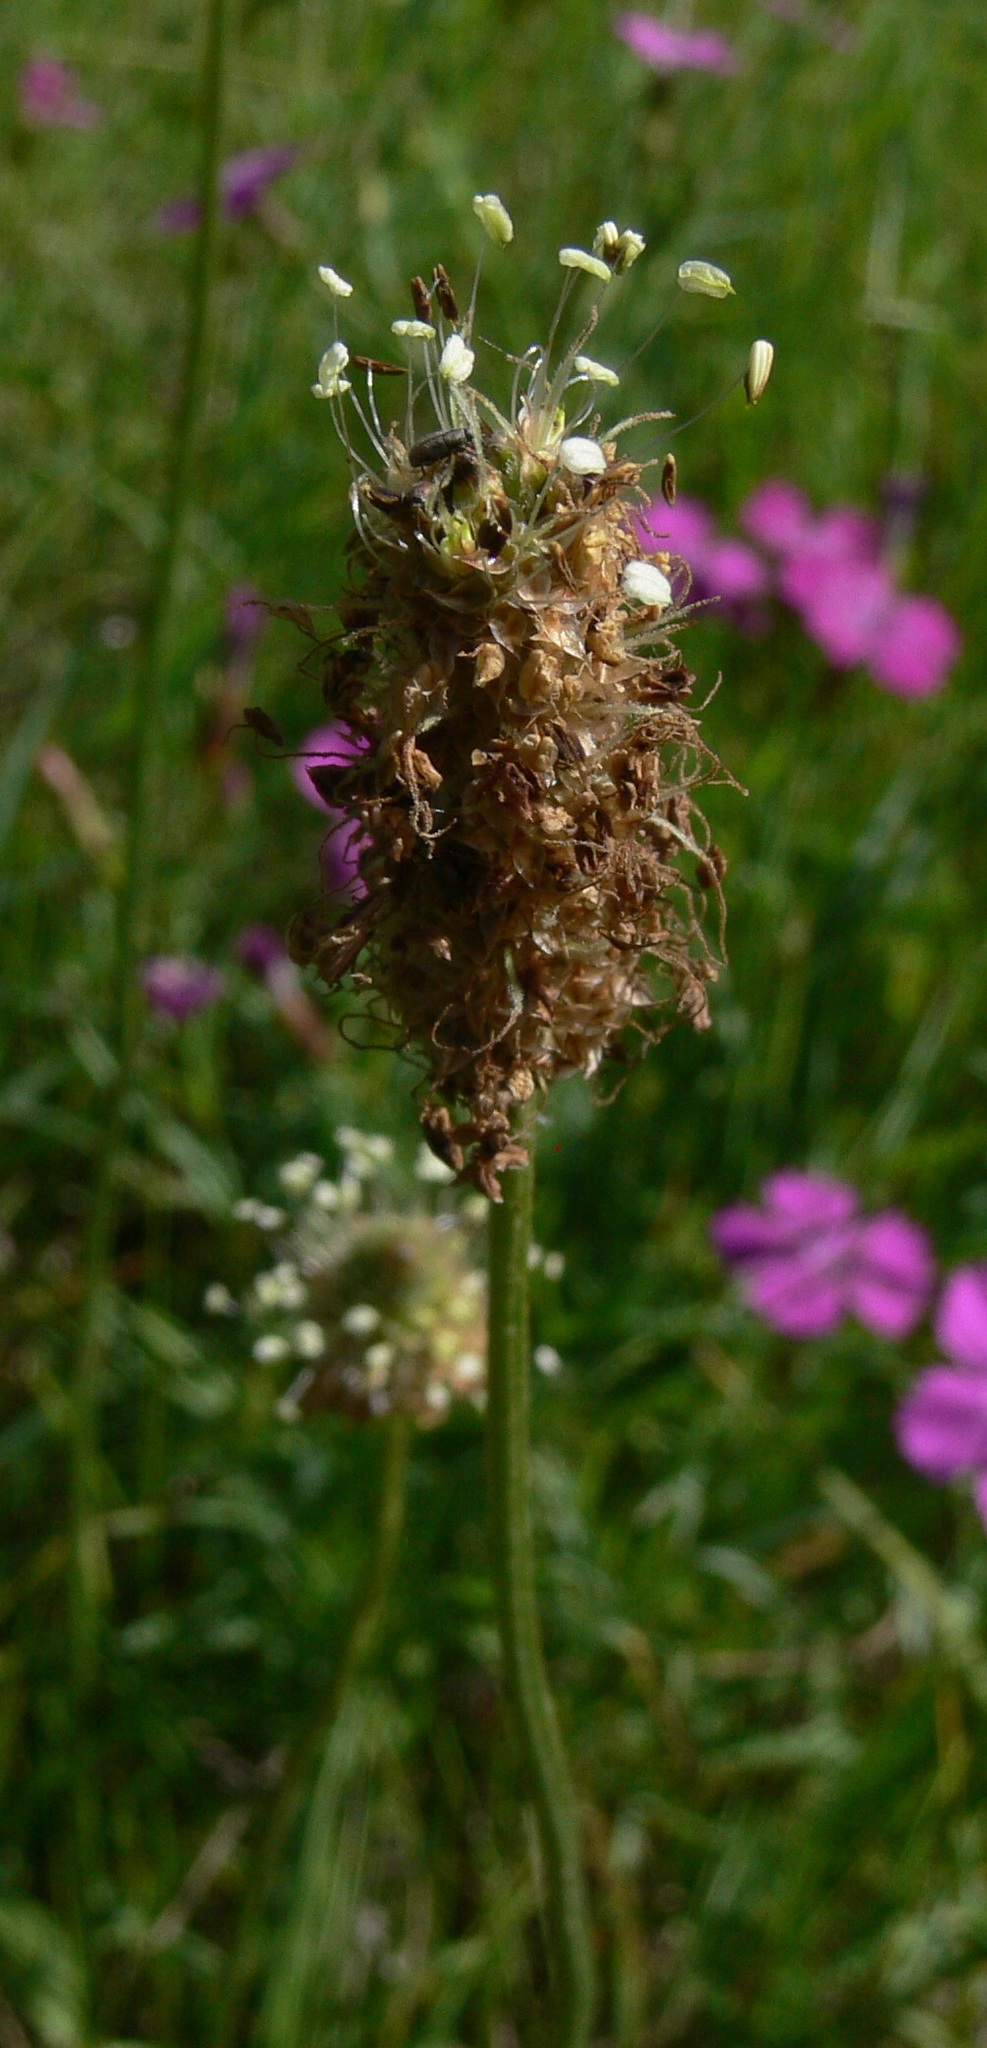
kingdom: Plantae
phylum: Tracheophyta
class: Magnoliopsida
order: Lamiales
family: Plantaginaceae
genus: Plantago
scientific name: Plantago lanceolata
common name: Ribwort plantain
